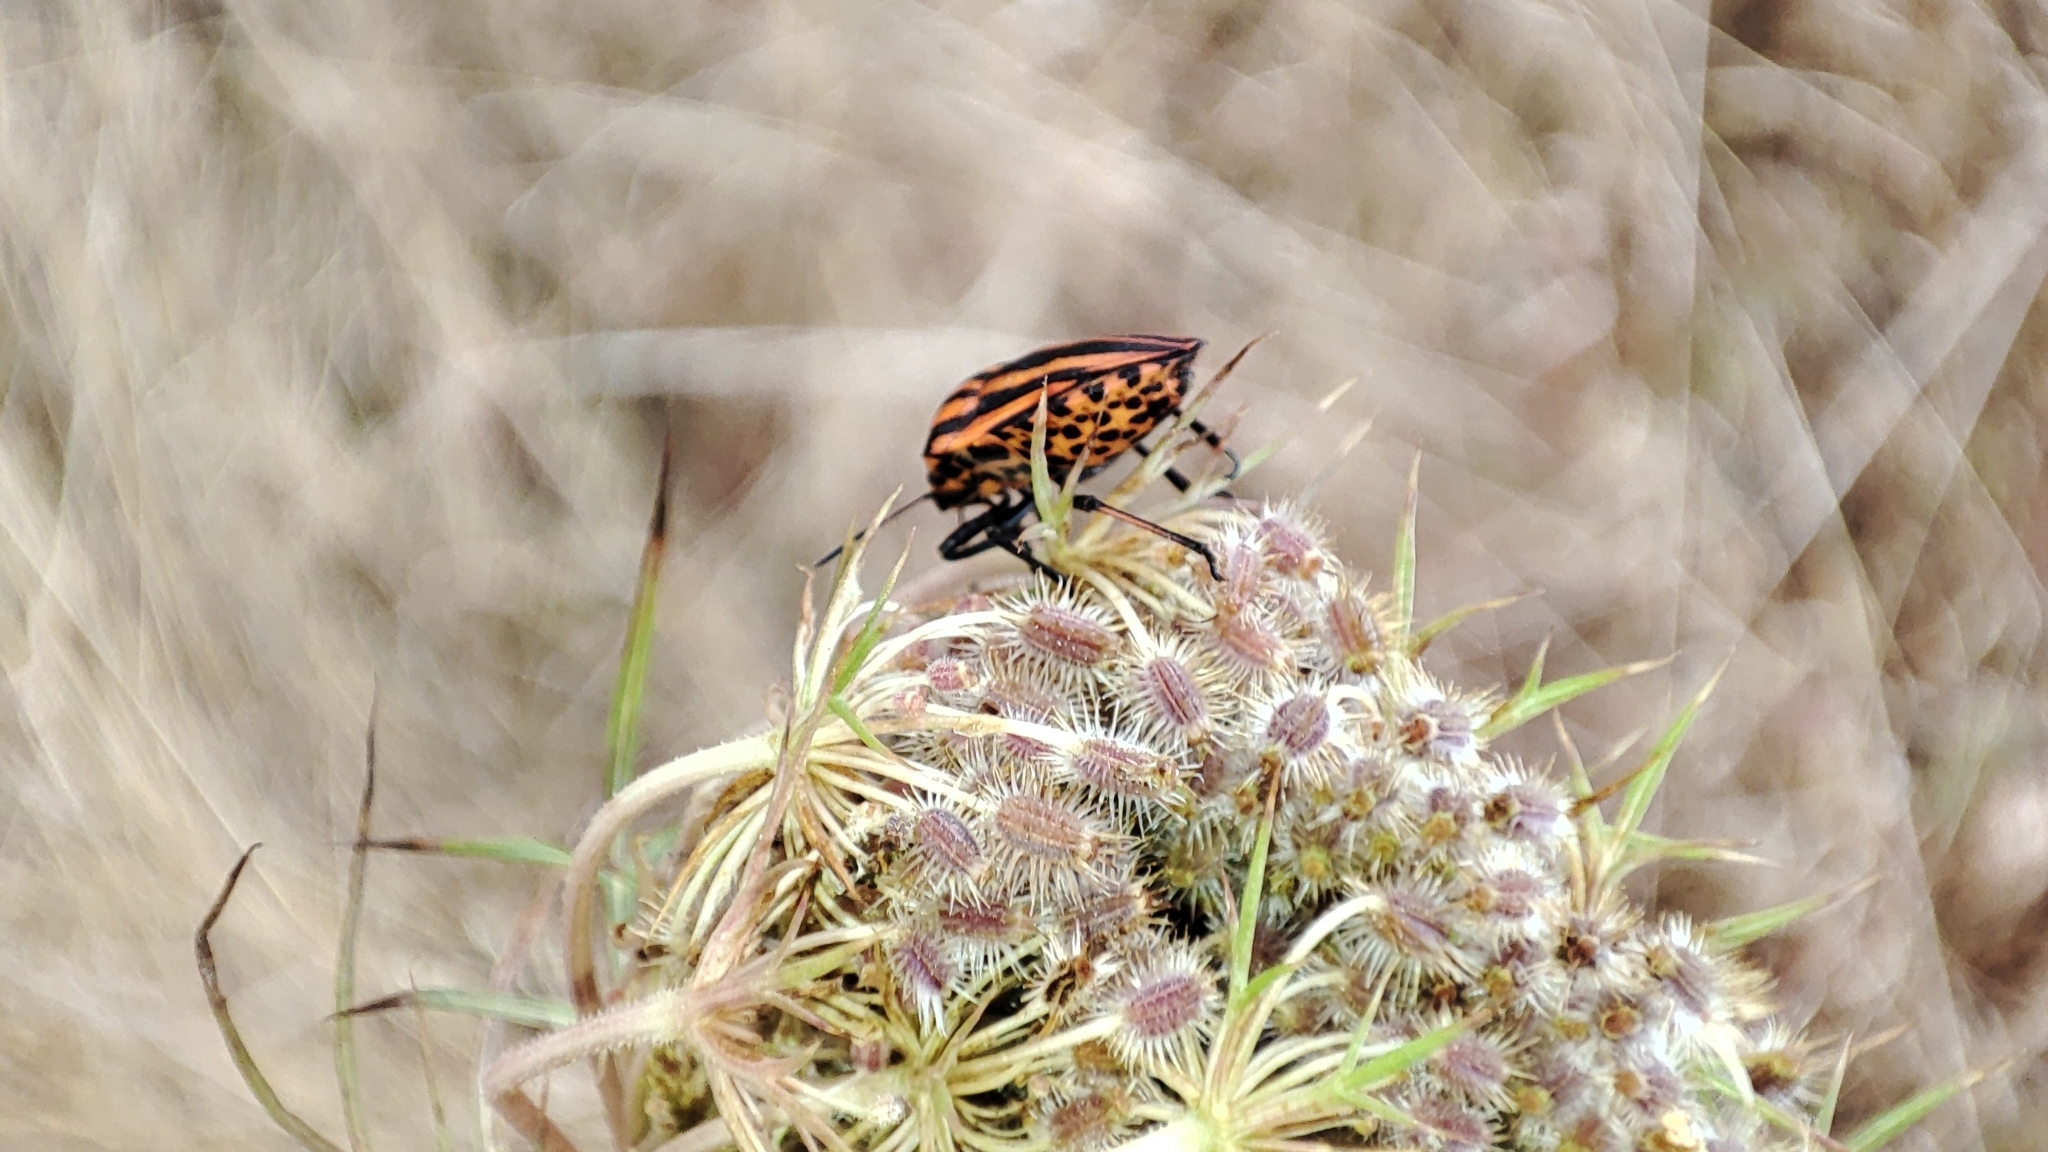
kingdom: Animalia
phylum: Arthropoda
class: Insecta
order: Hemiptera
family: Pentatomidae
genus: Graphosoma
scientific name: Graphosoma italicum
